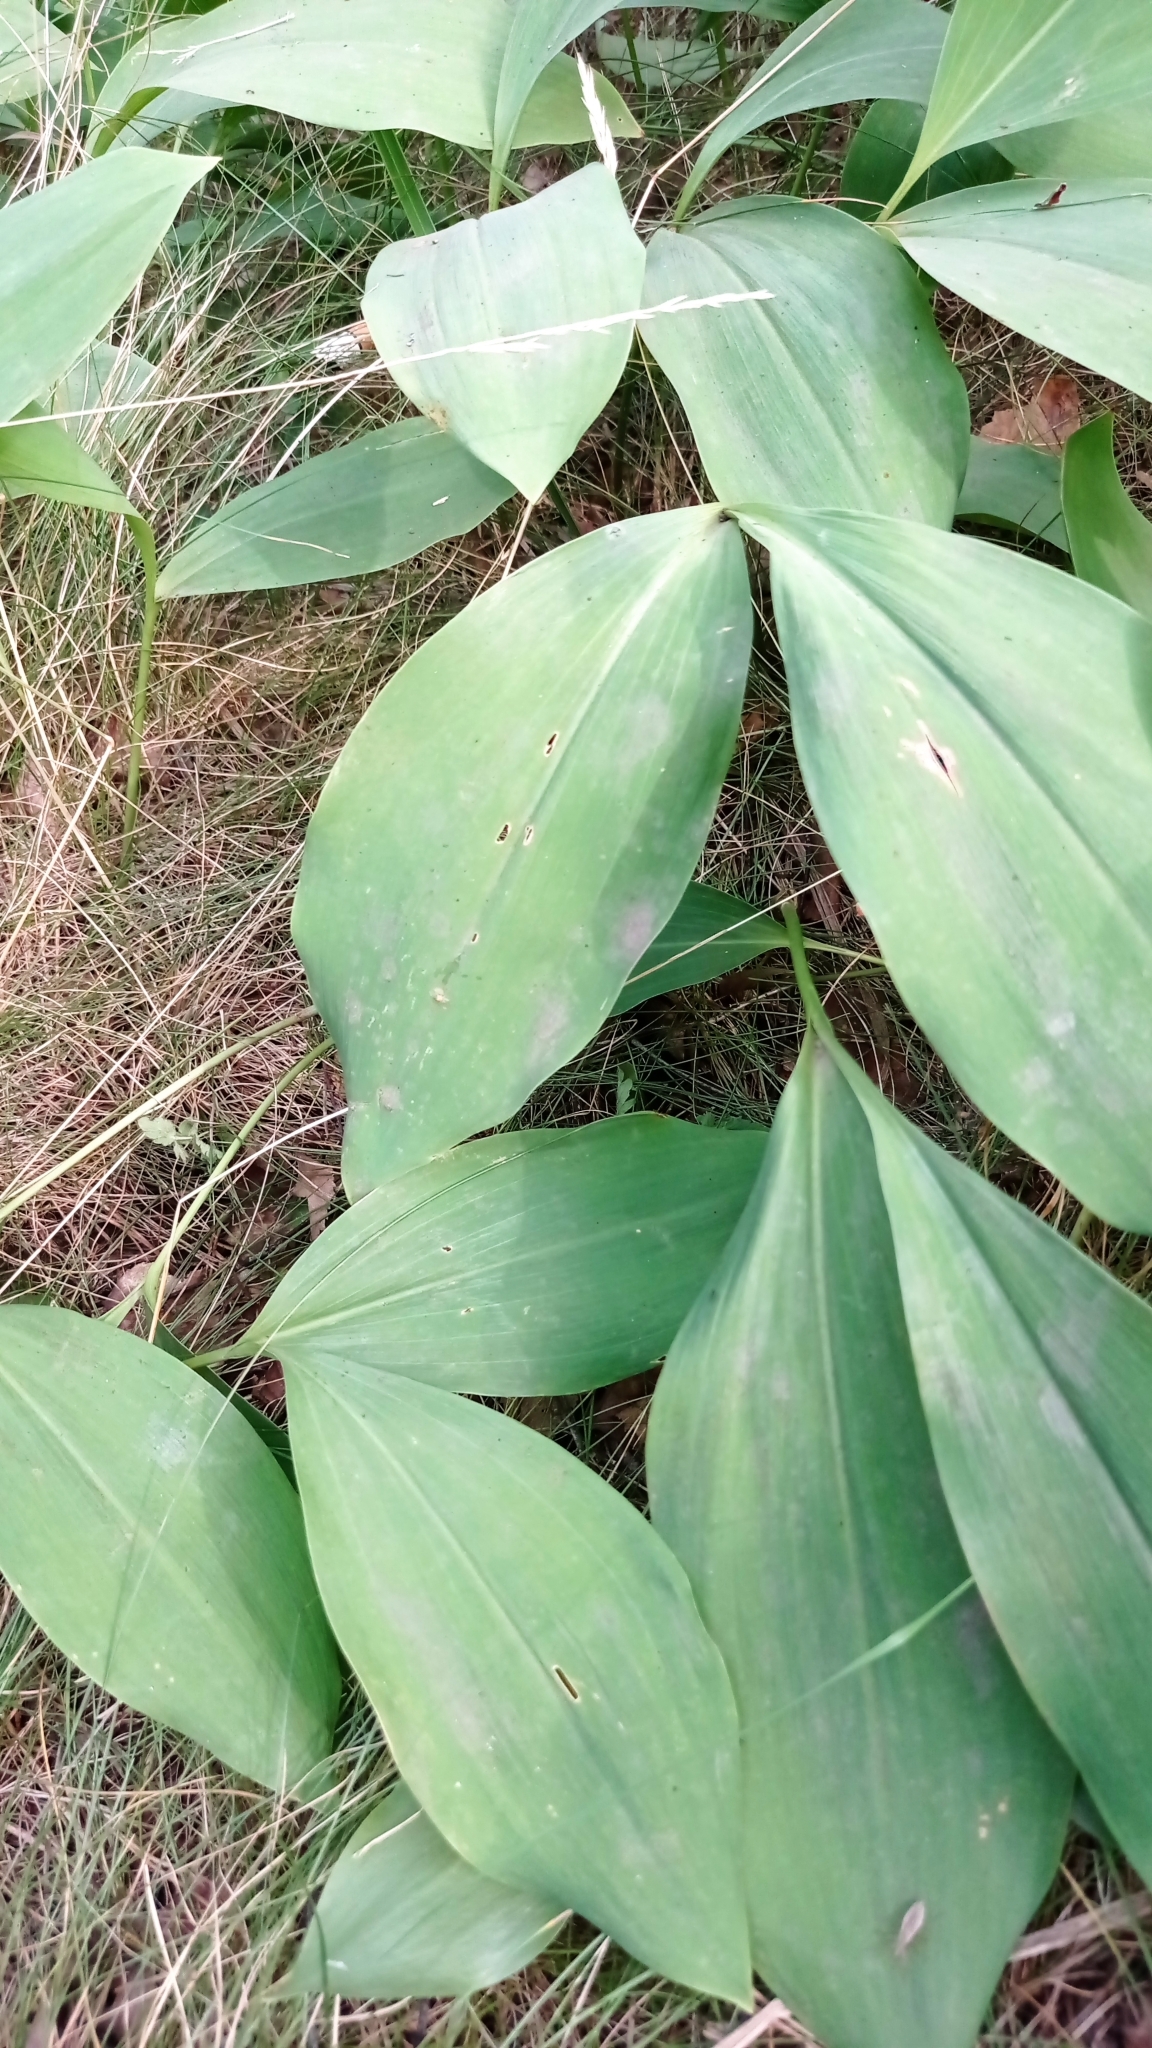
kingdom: Plantae
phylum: Tracheophyta
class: Liliopsida
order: Asparagales
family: Asparagaceae
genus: Convallaria
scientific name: Convallaria majalis
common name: Lily-of-the-valley
